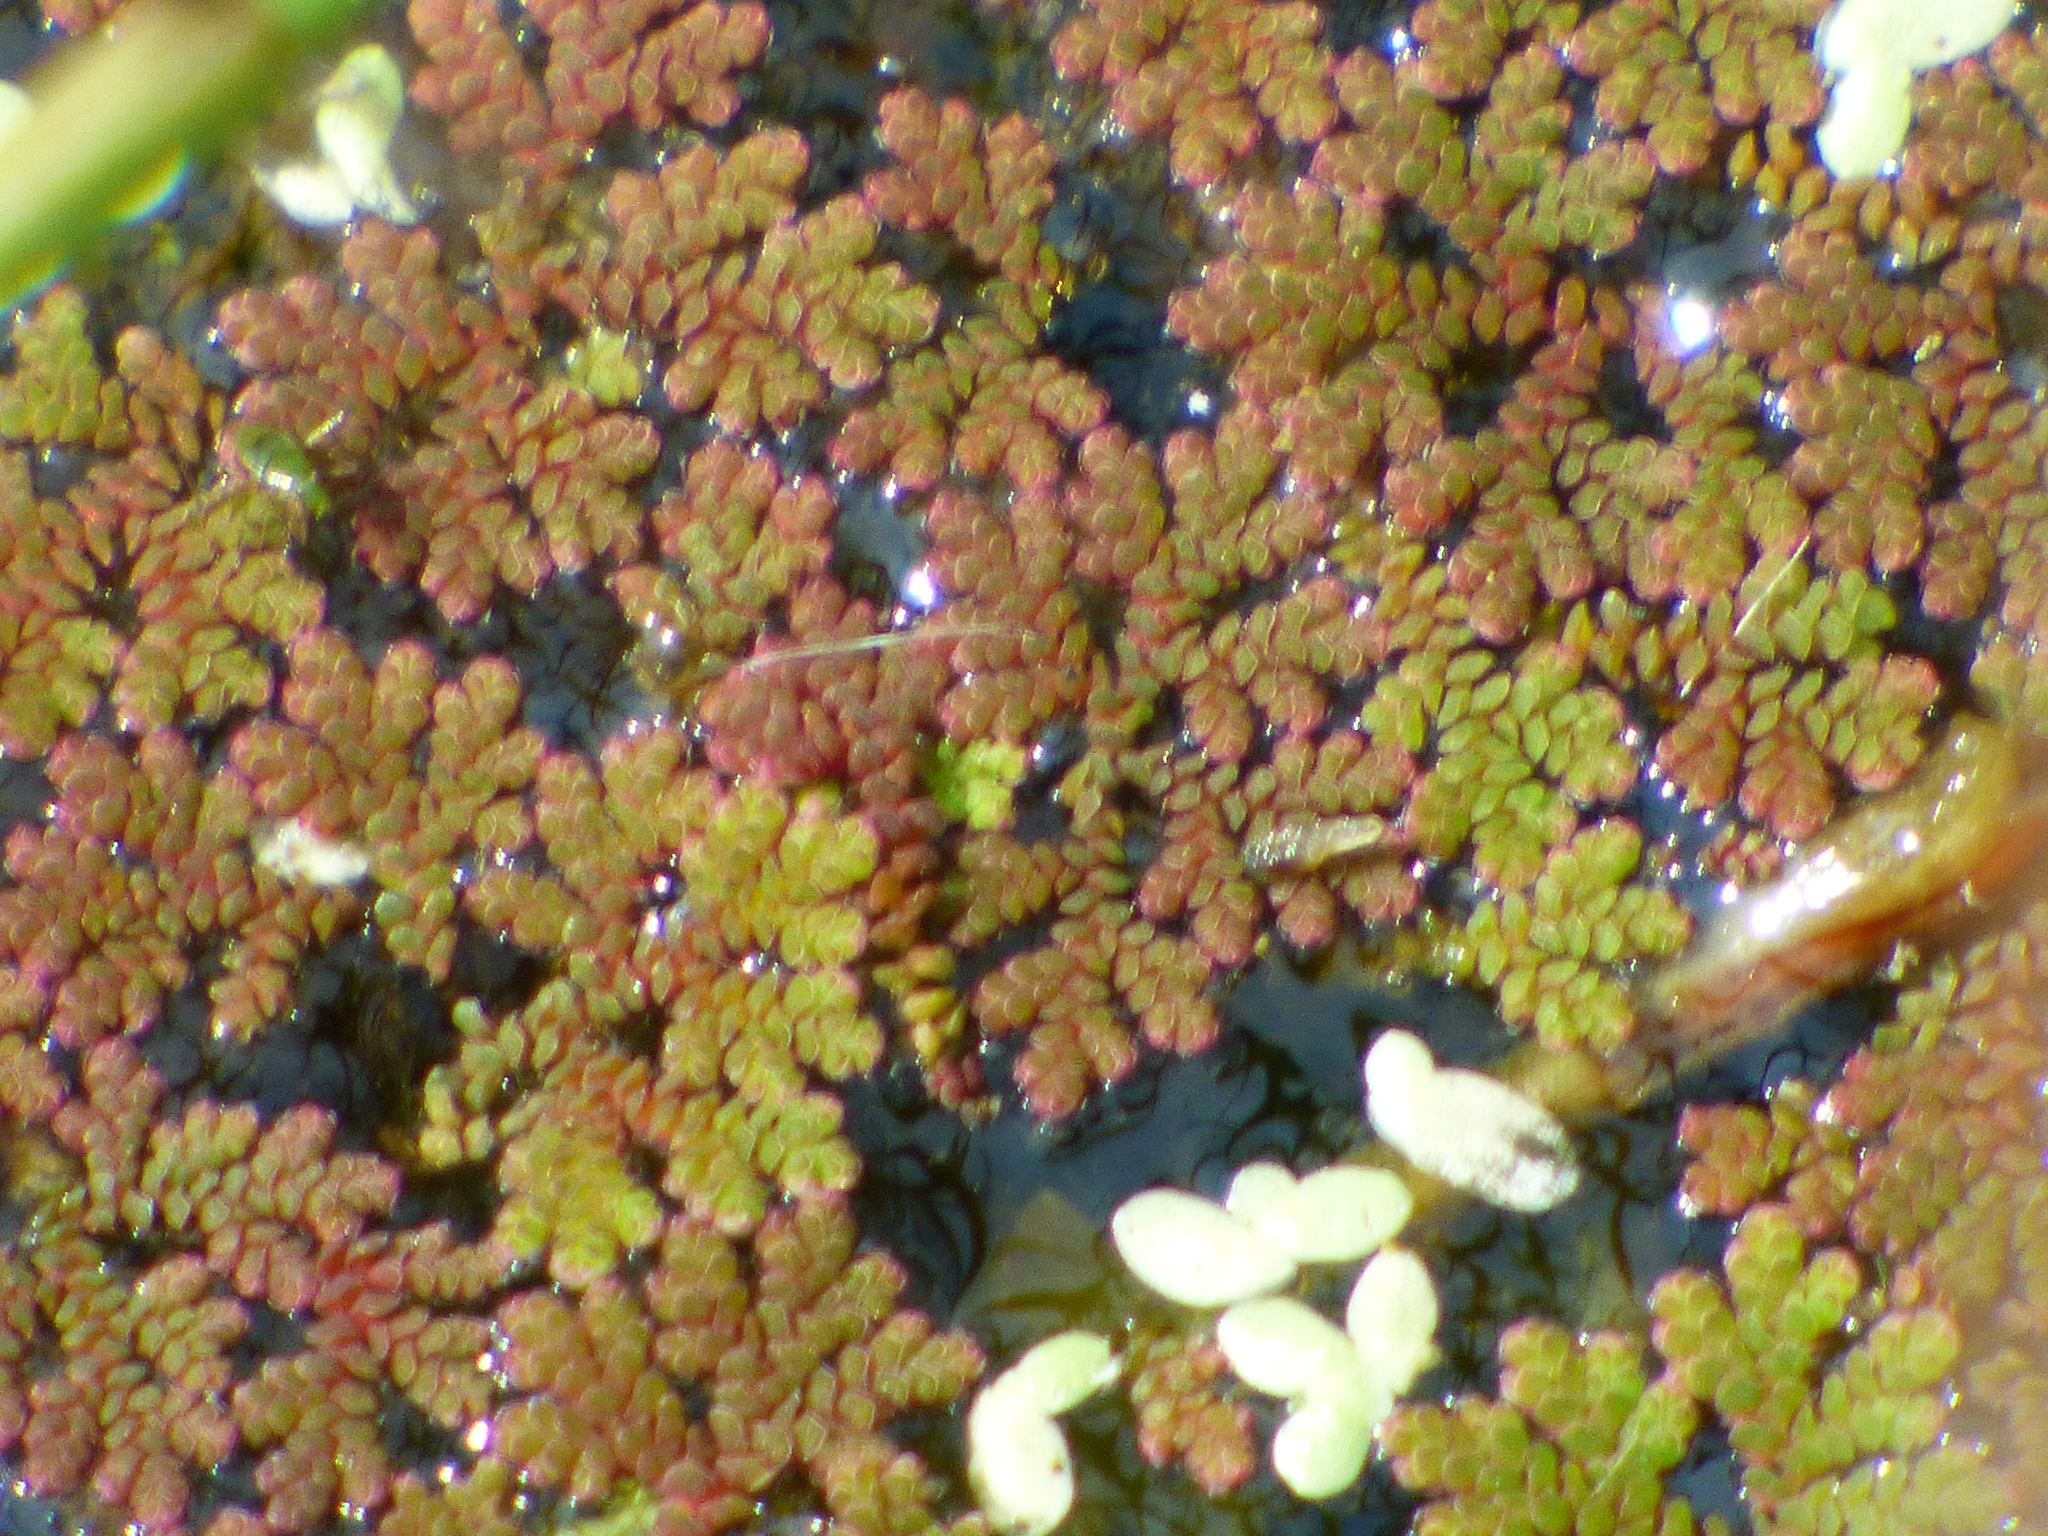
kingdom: Plantae
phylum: Tracheophyta
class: Polypodiopsida
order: Salviniales
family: Salviniaceae
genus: Azolla
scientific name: Azolla caroliniana
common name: Carolina mosquitofern
